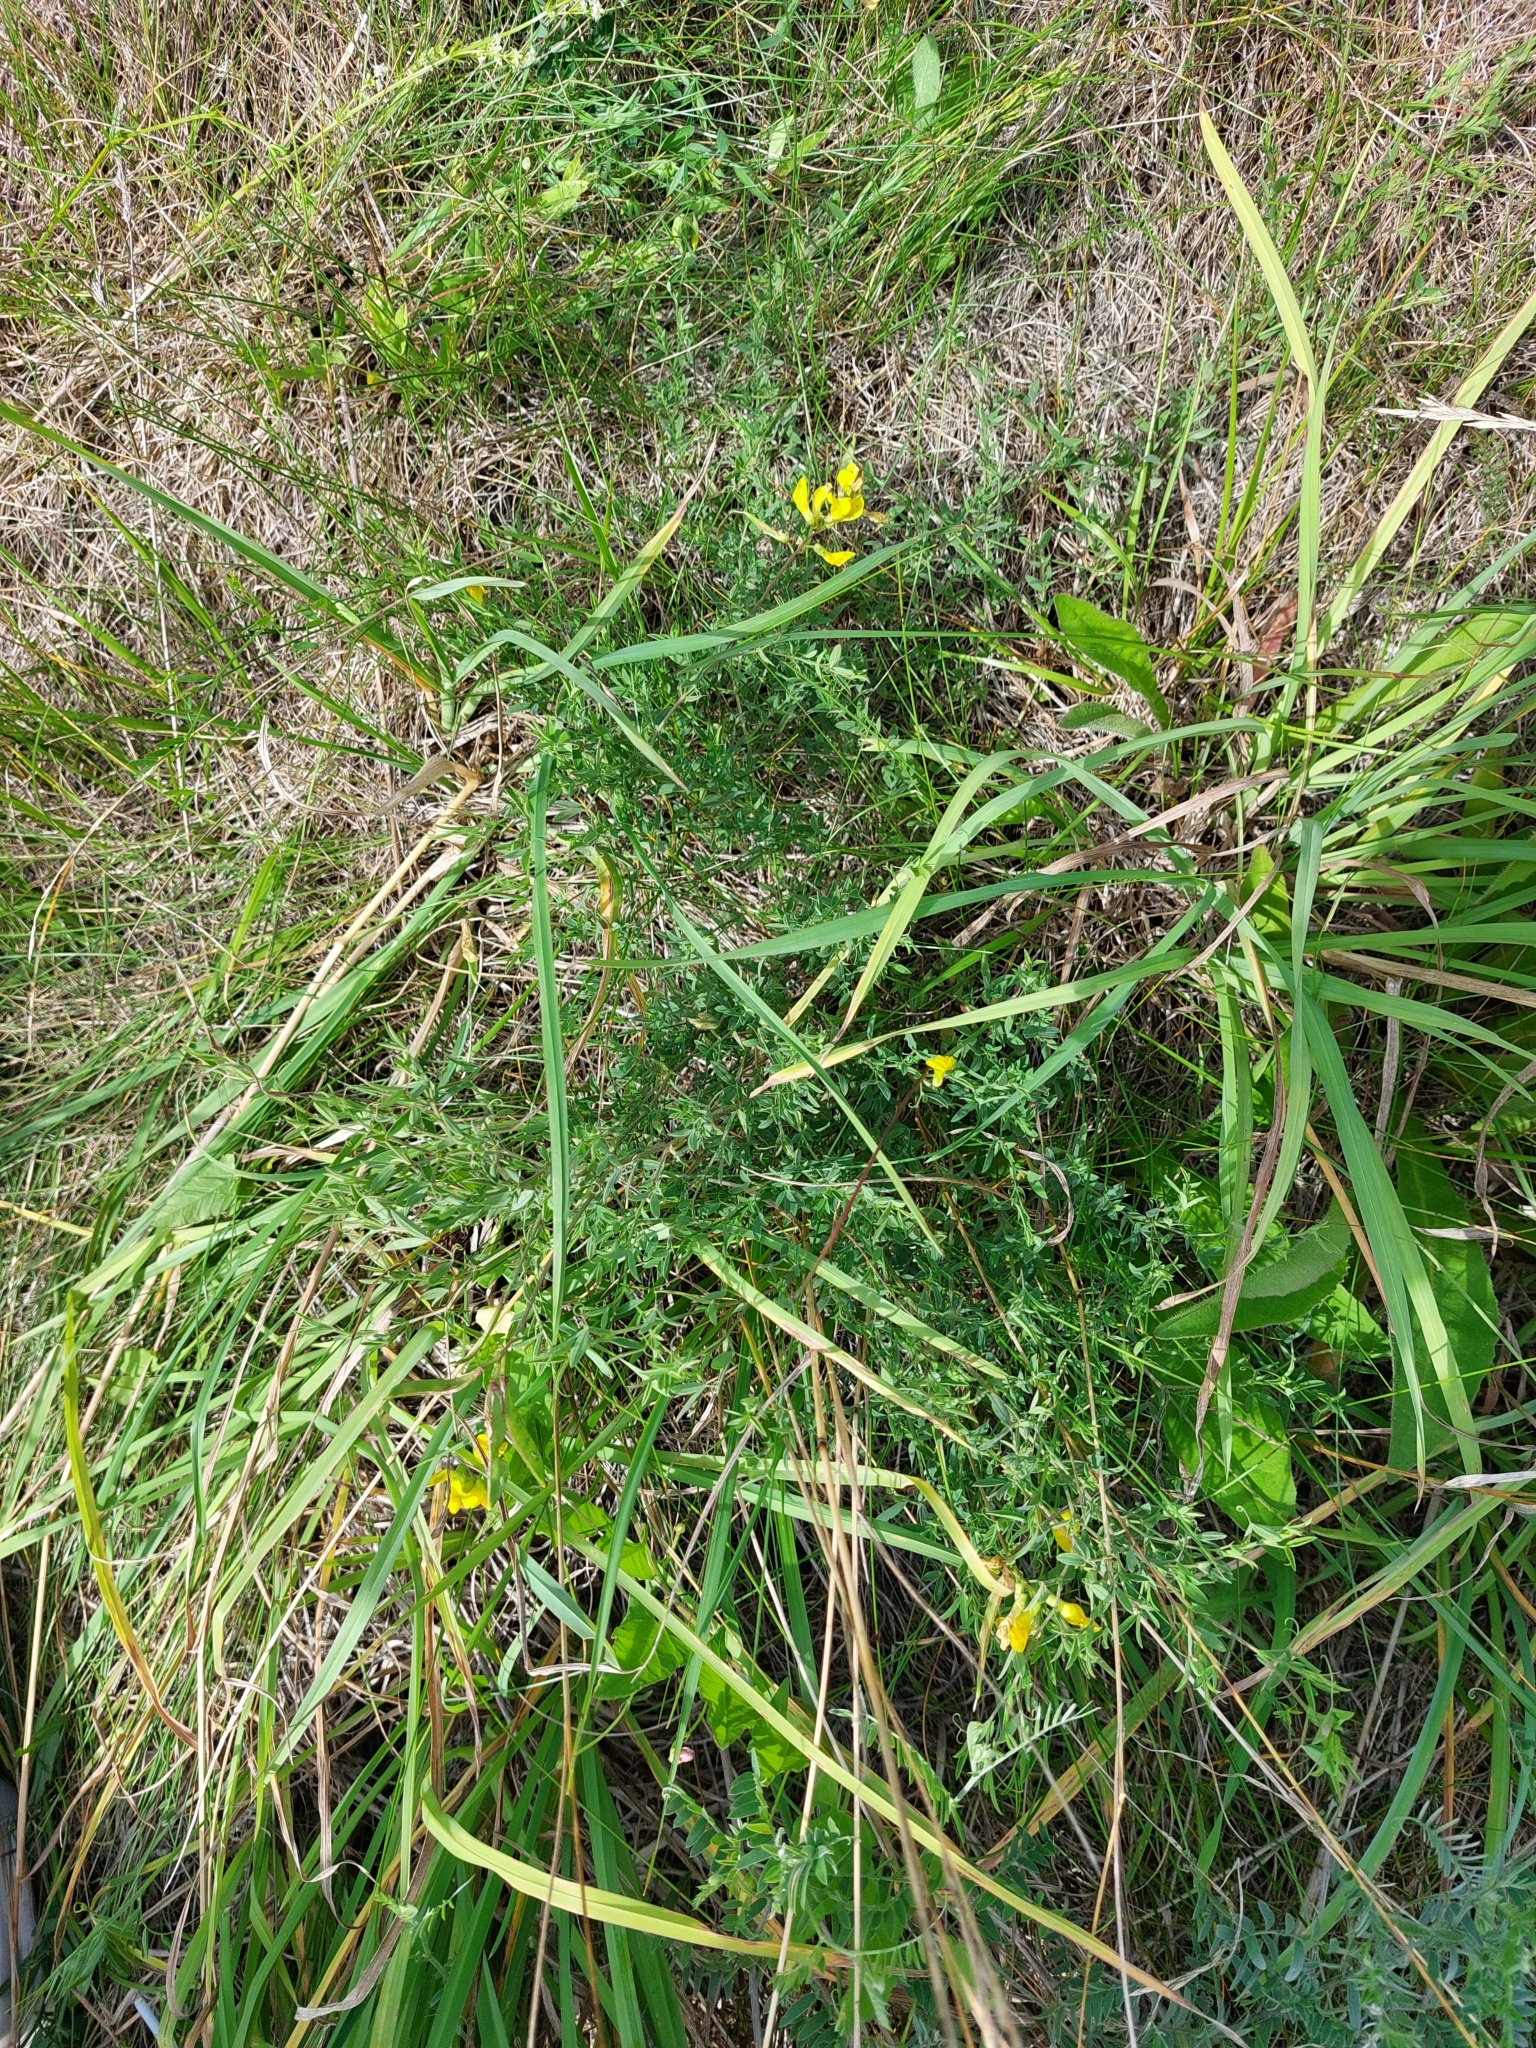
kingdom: Plantae
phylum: Tracheophyta
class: Magnoliopsida
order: Fabales
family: Fabaceae
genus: Lathyrus
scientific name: Lathyrus pratensis
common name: Meadow vetchling
